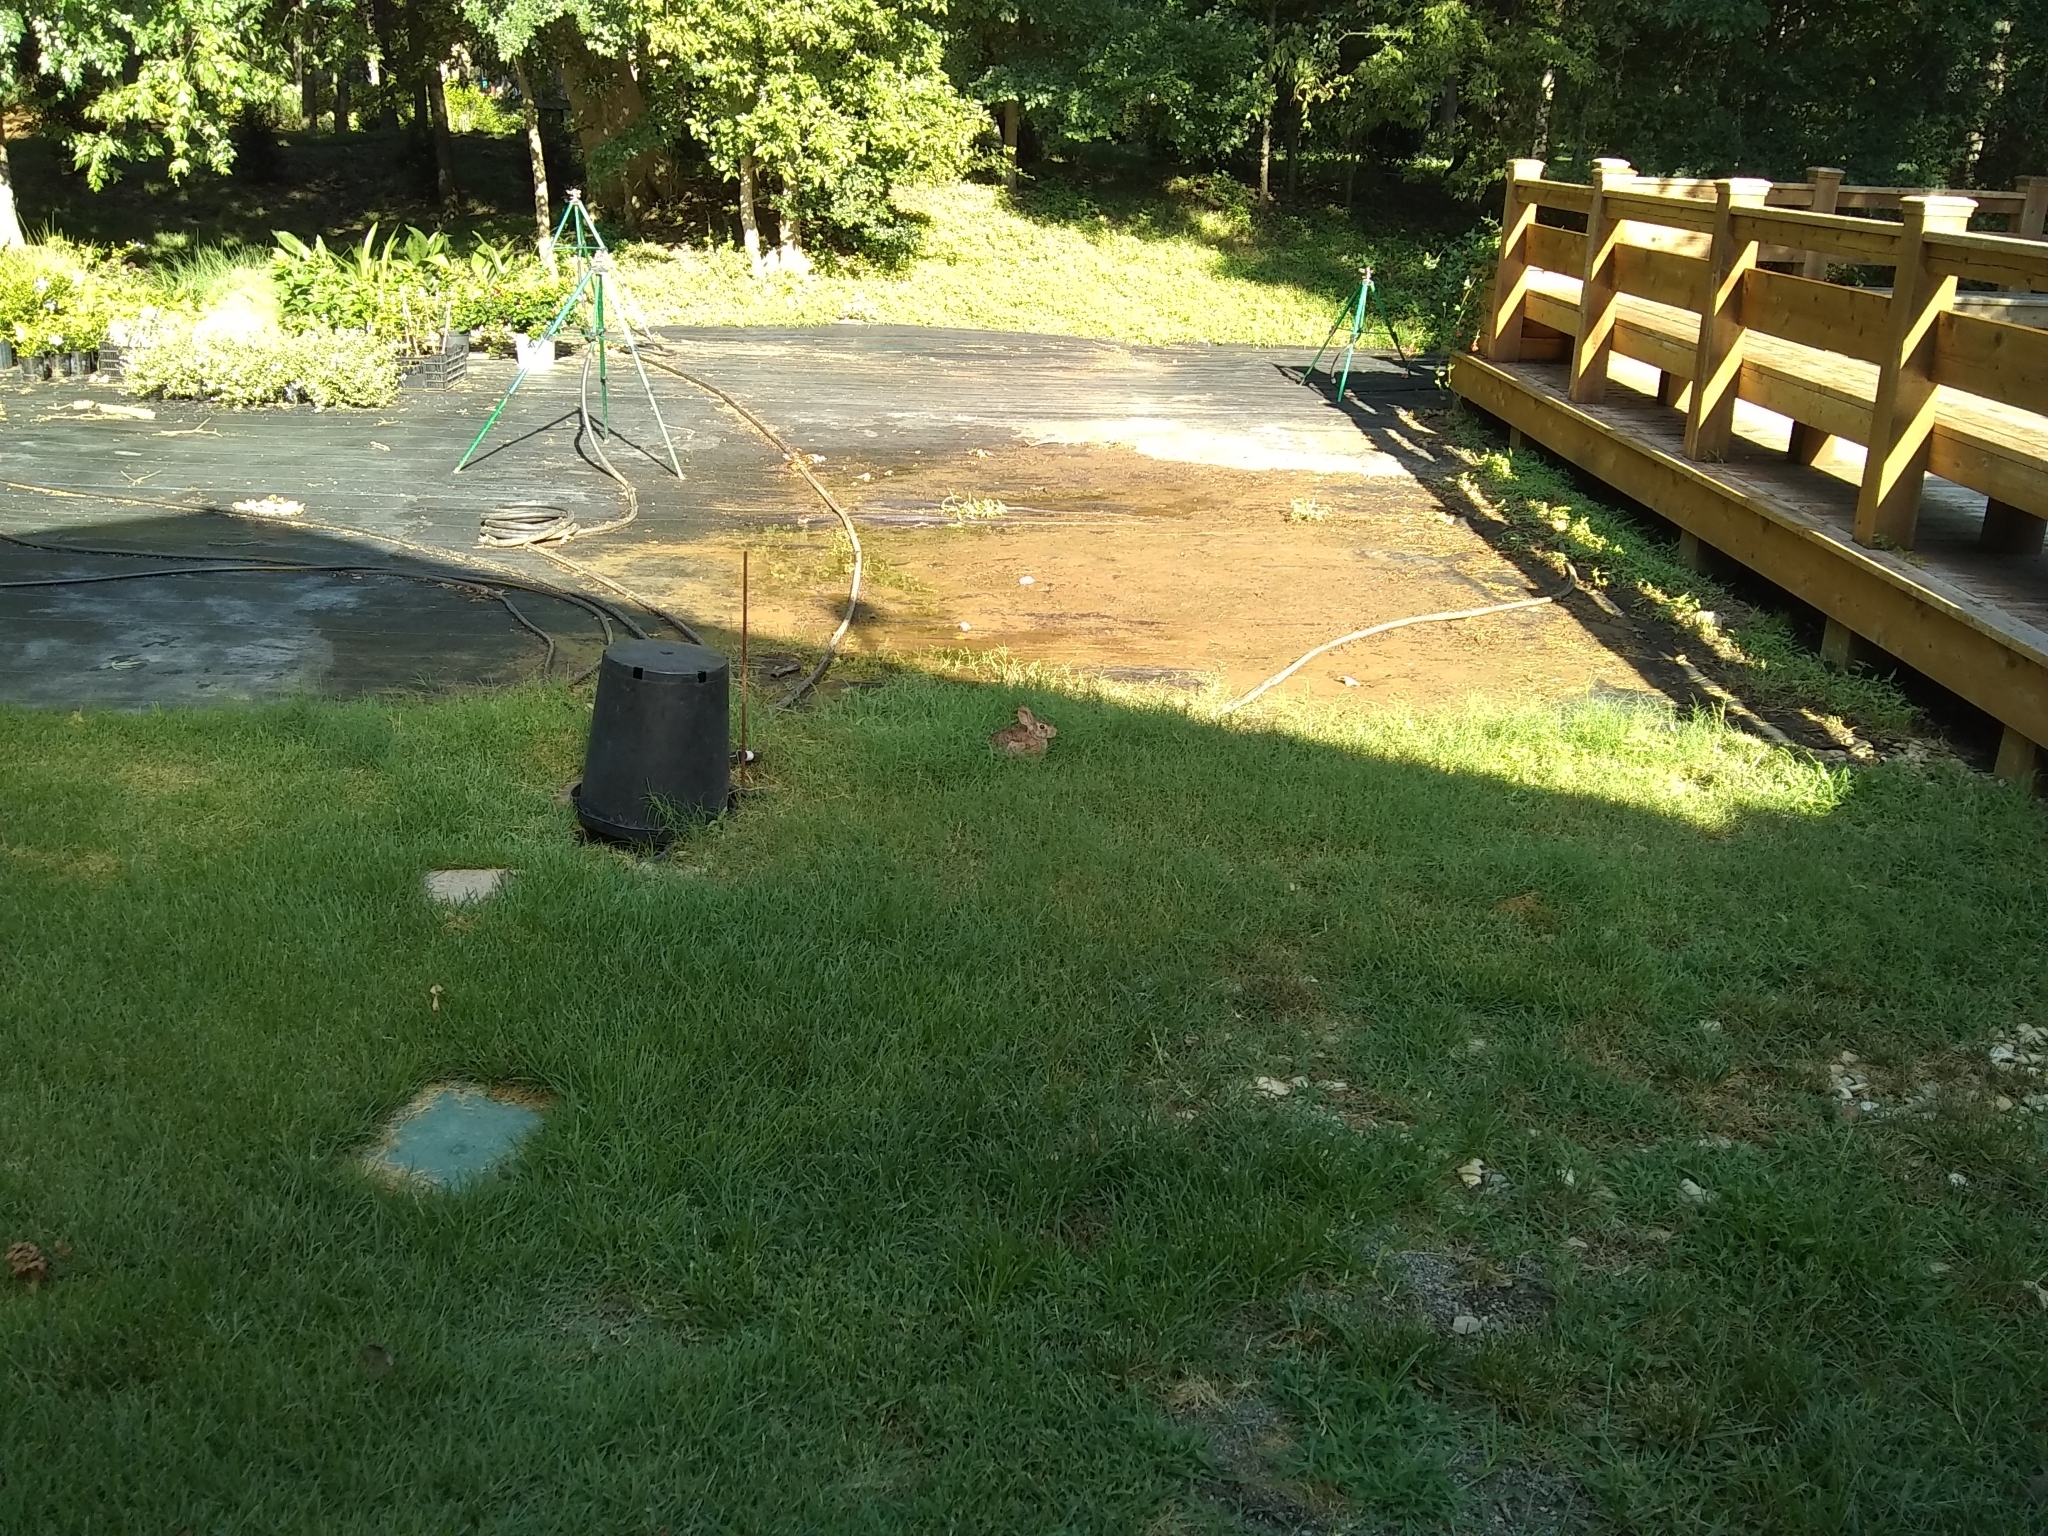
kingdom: Animalia
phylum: Chordata
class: Mammalia
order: Lagomorpha
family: Leporidae
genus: Sylvilagus
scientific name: Sylvilagus floridanus
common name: Eastern cottontail
